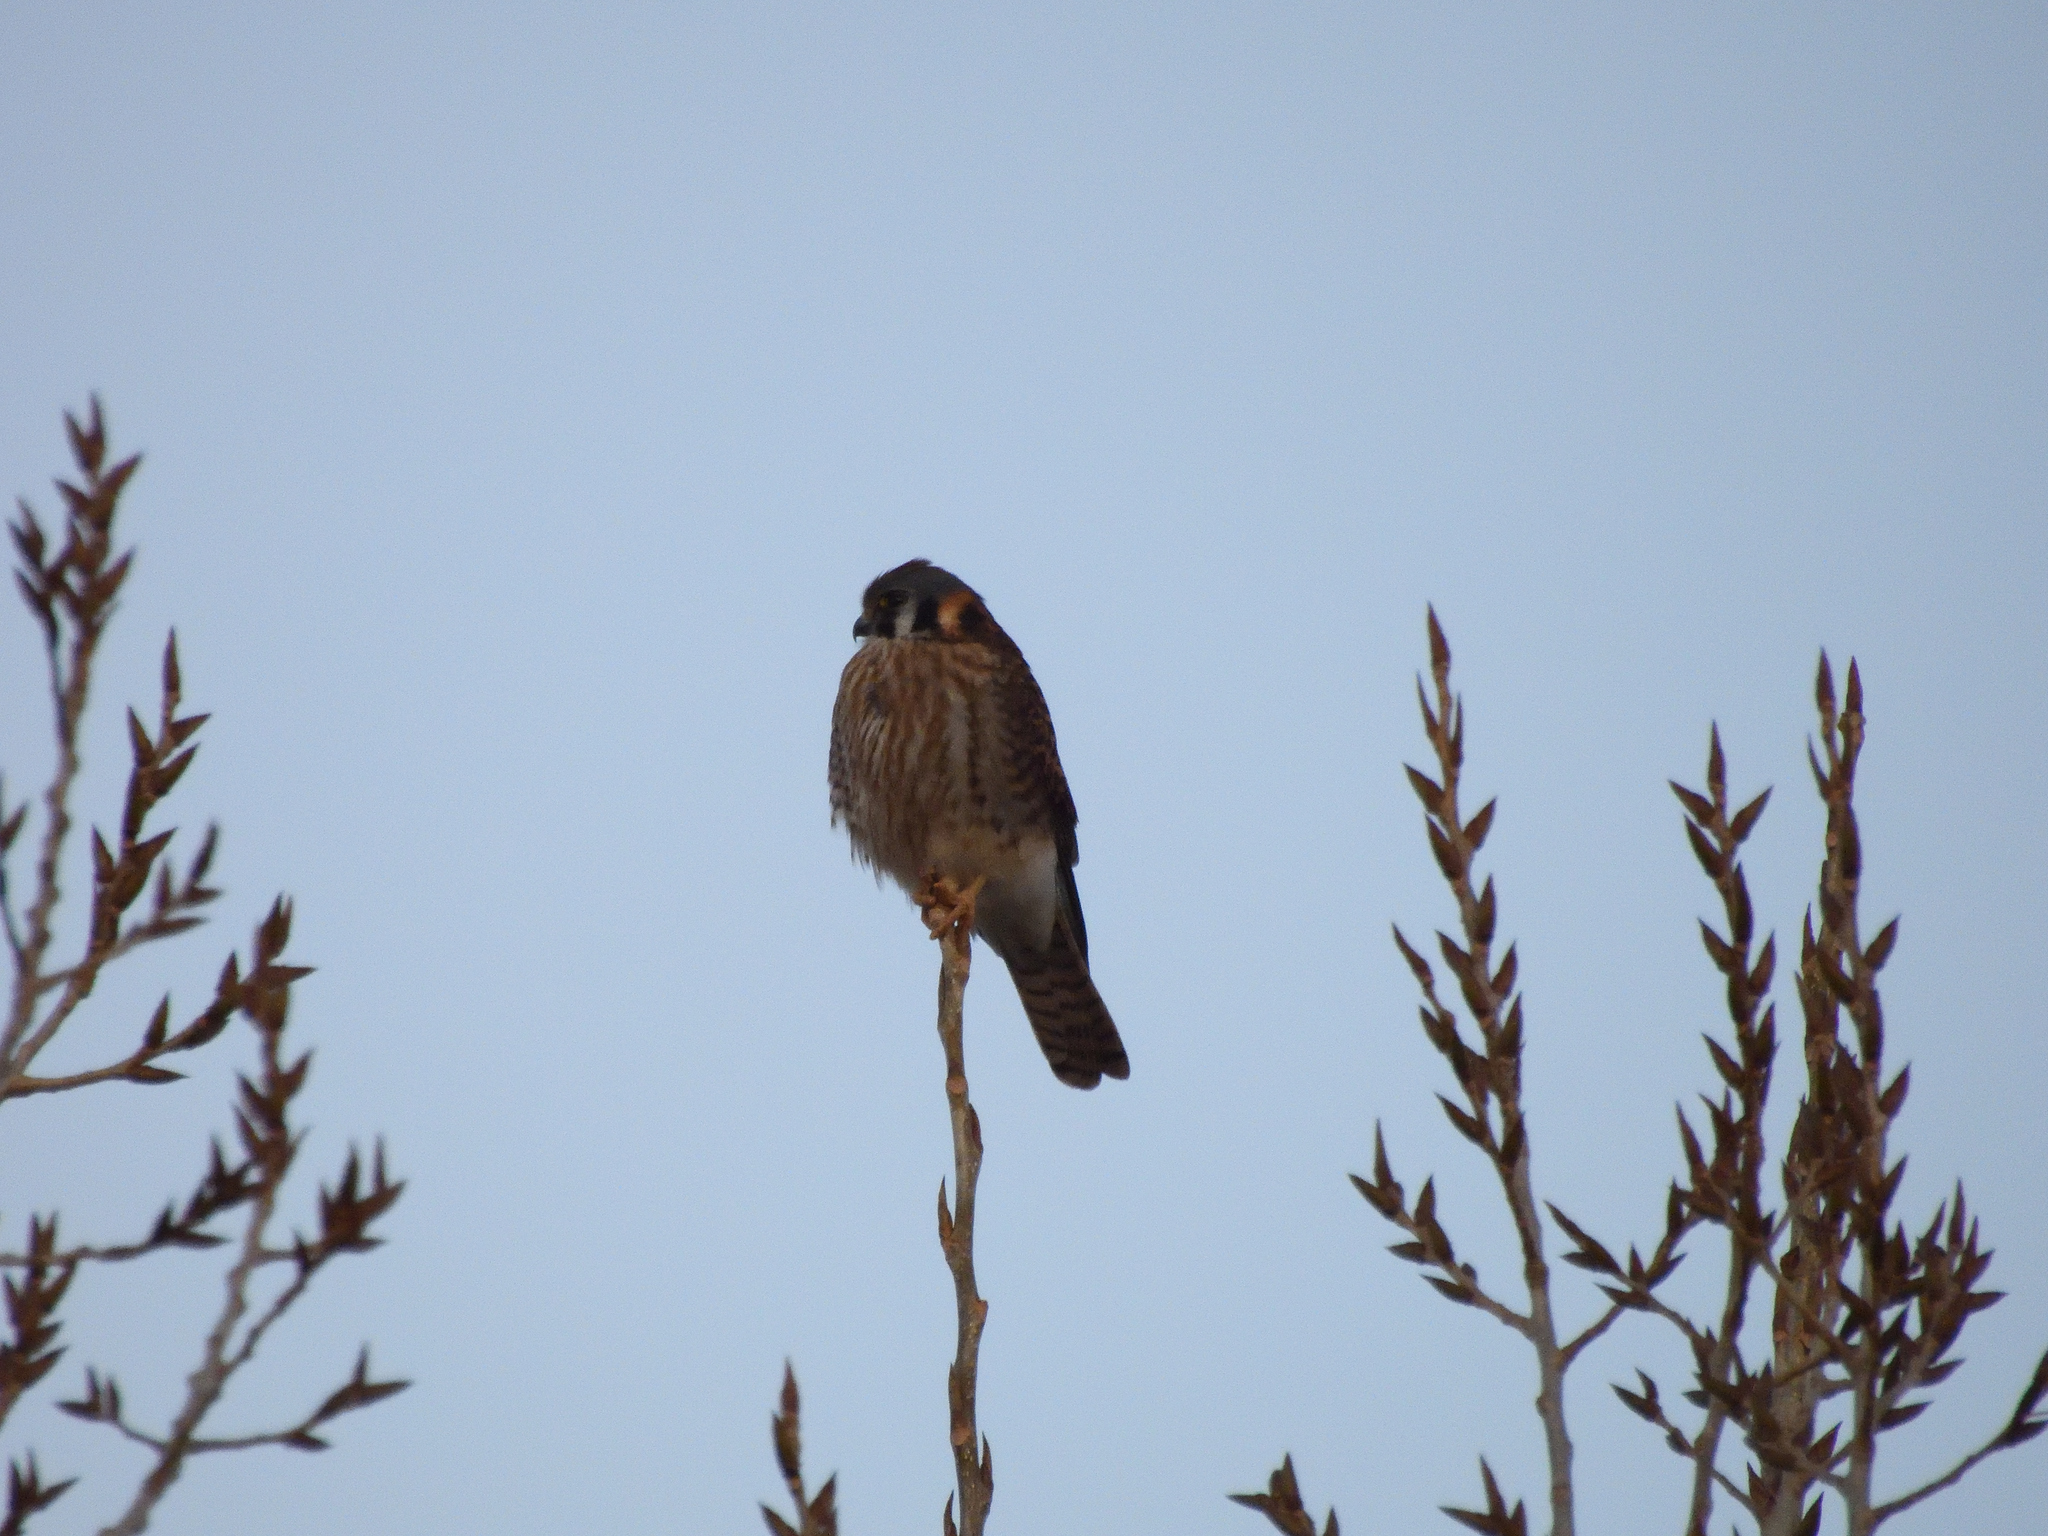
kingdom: Animalia
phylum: Chordata
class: Aves
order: Falconiformes
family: Falconidae
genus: Falco
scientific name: Falco sparverius
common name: American kestrel
